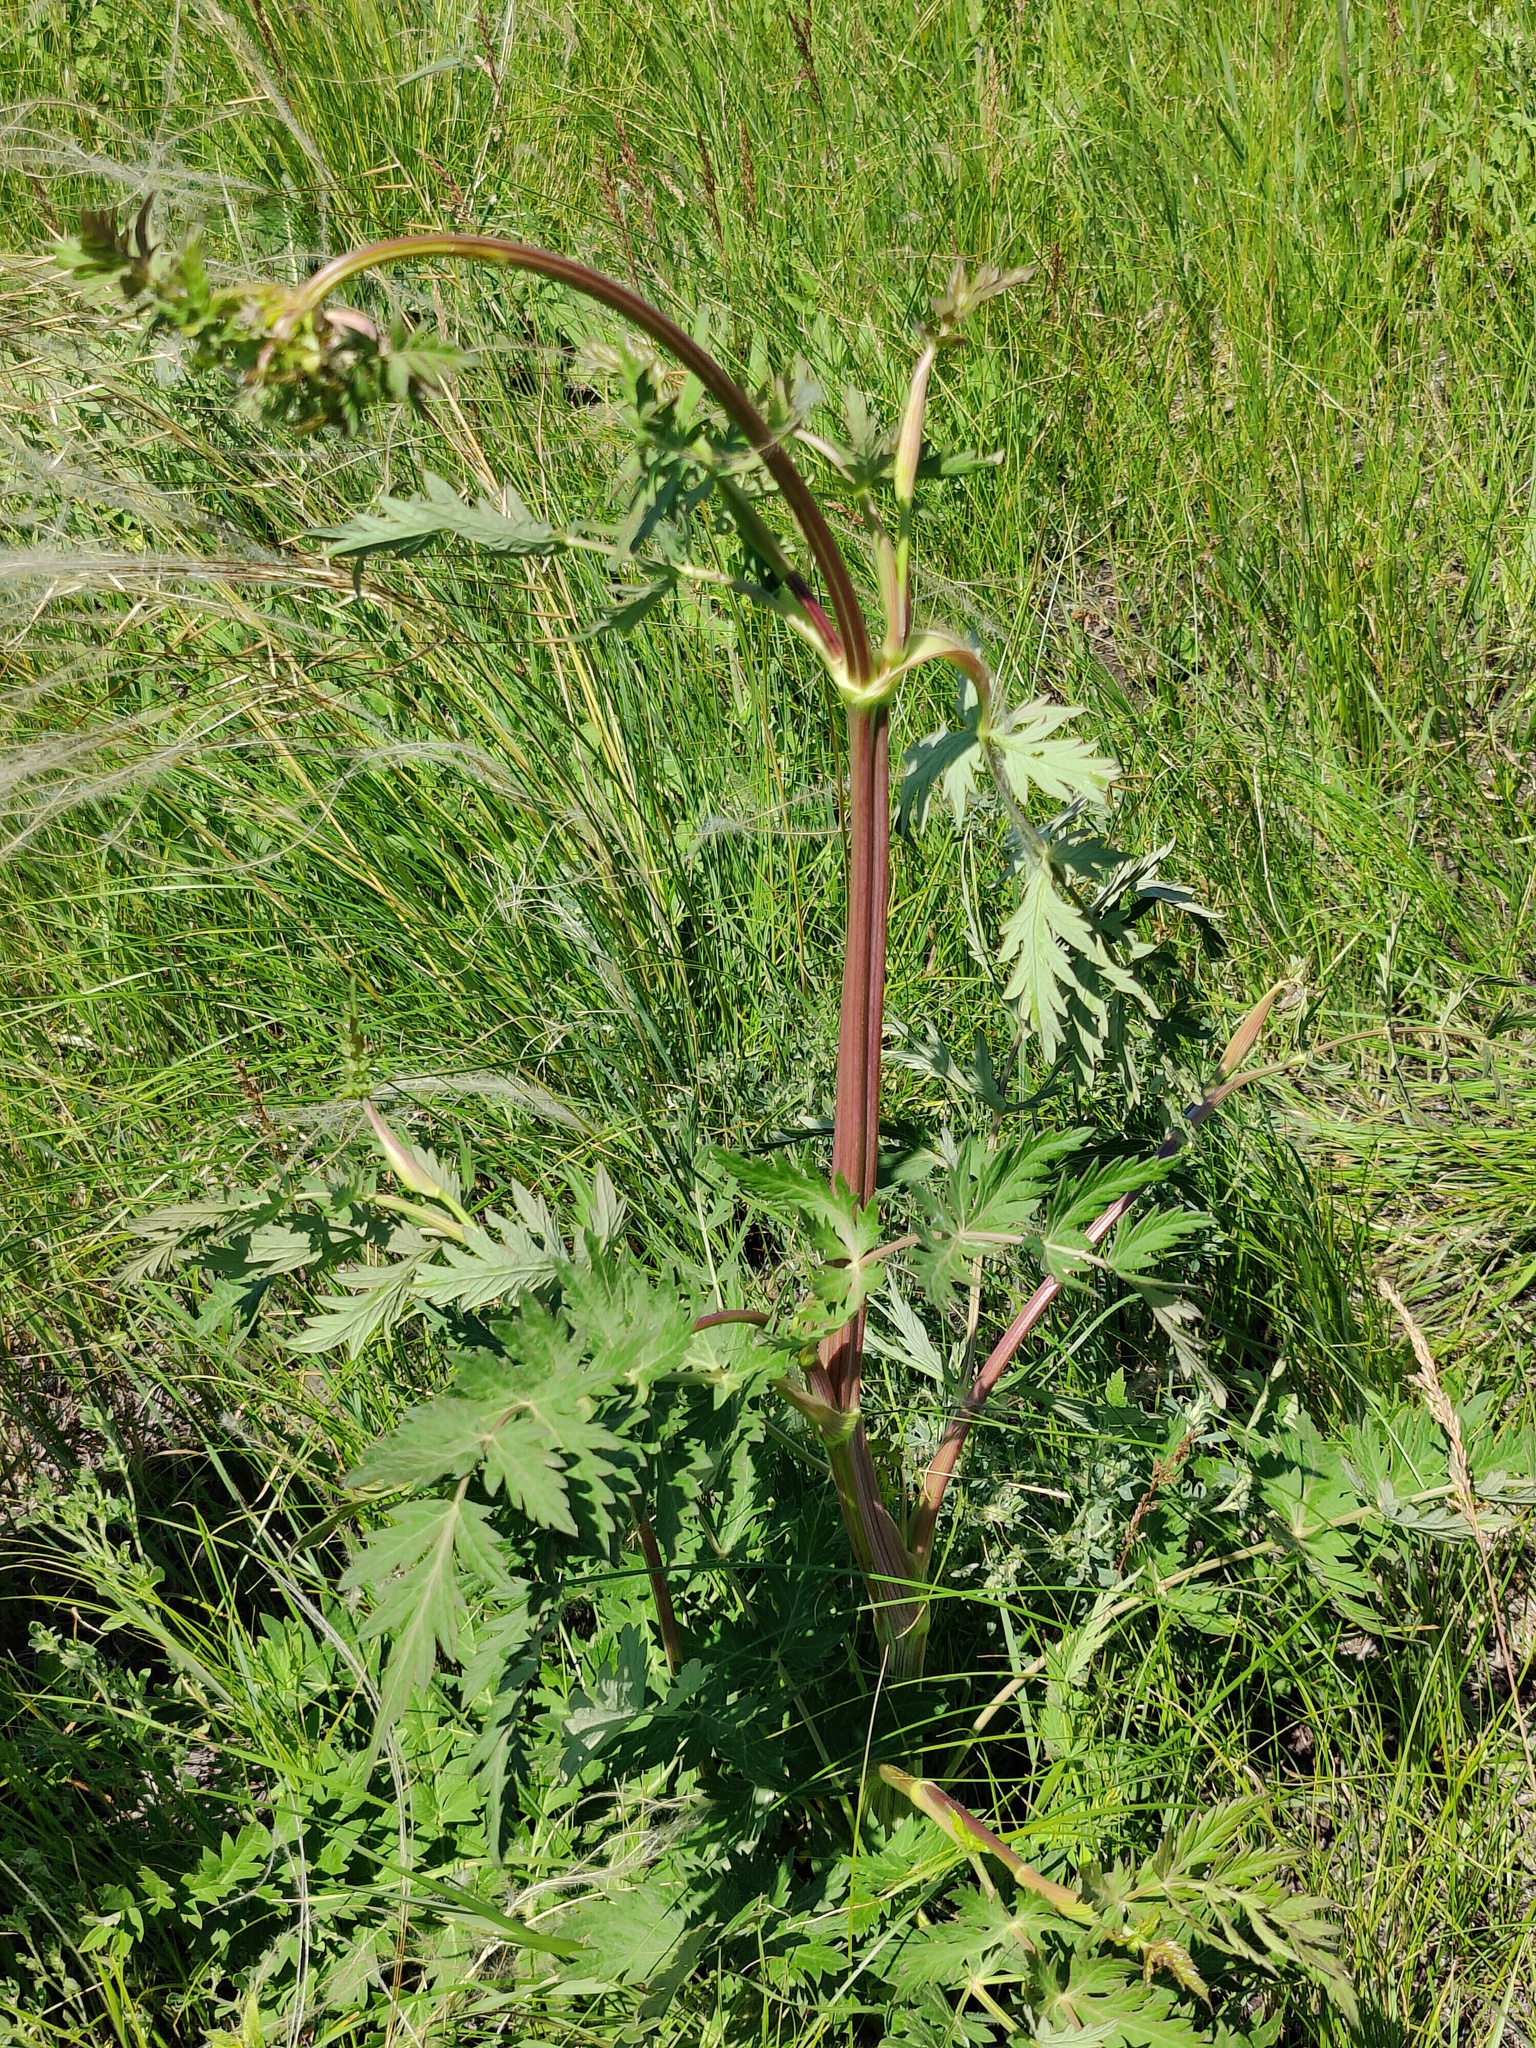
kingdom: Plantae
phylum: Tracheophyta
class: Magnoliopsida
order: Apiales
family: Apiaceae
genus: Seseli
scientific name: Seseli libanotis
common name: Mooncarrot
